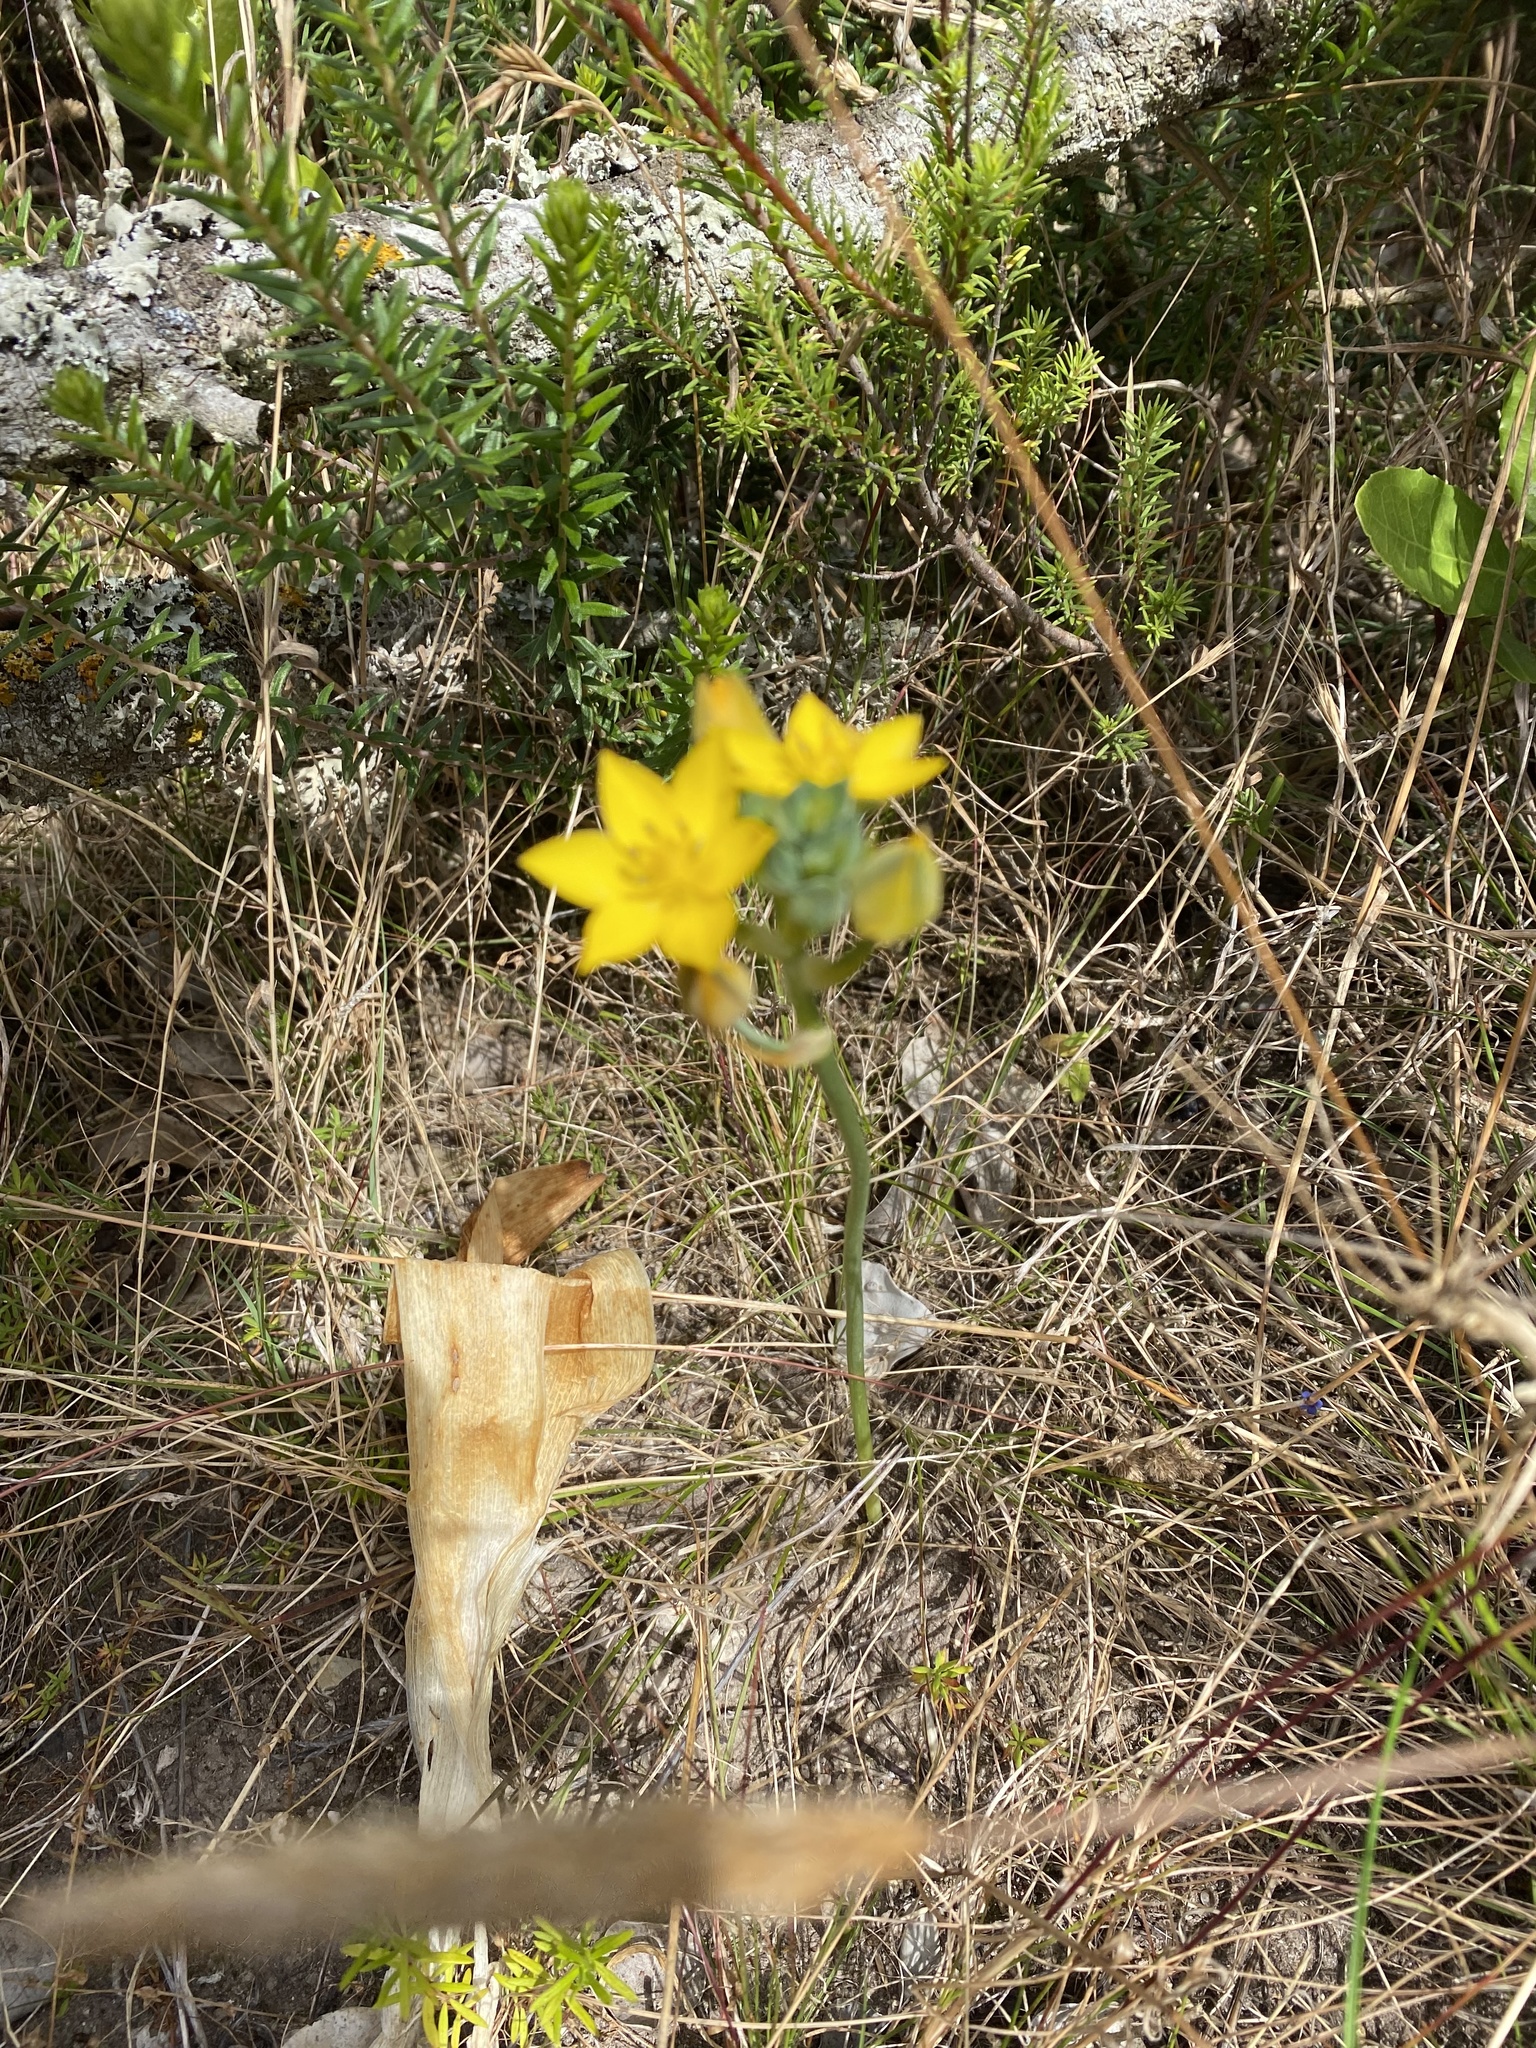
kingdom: Plantae
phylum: Tracheophyta
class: Liliopsida
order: Asparagales
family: Asparagaceae
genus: Ornithogalum
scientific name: Ornithogalum dubium
